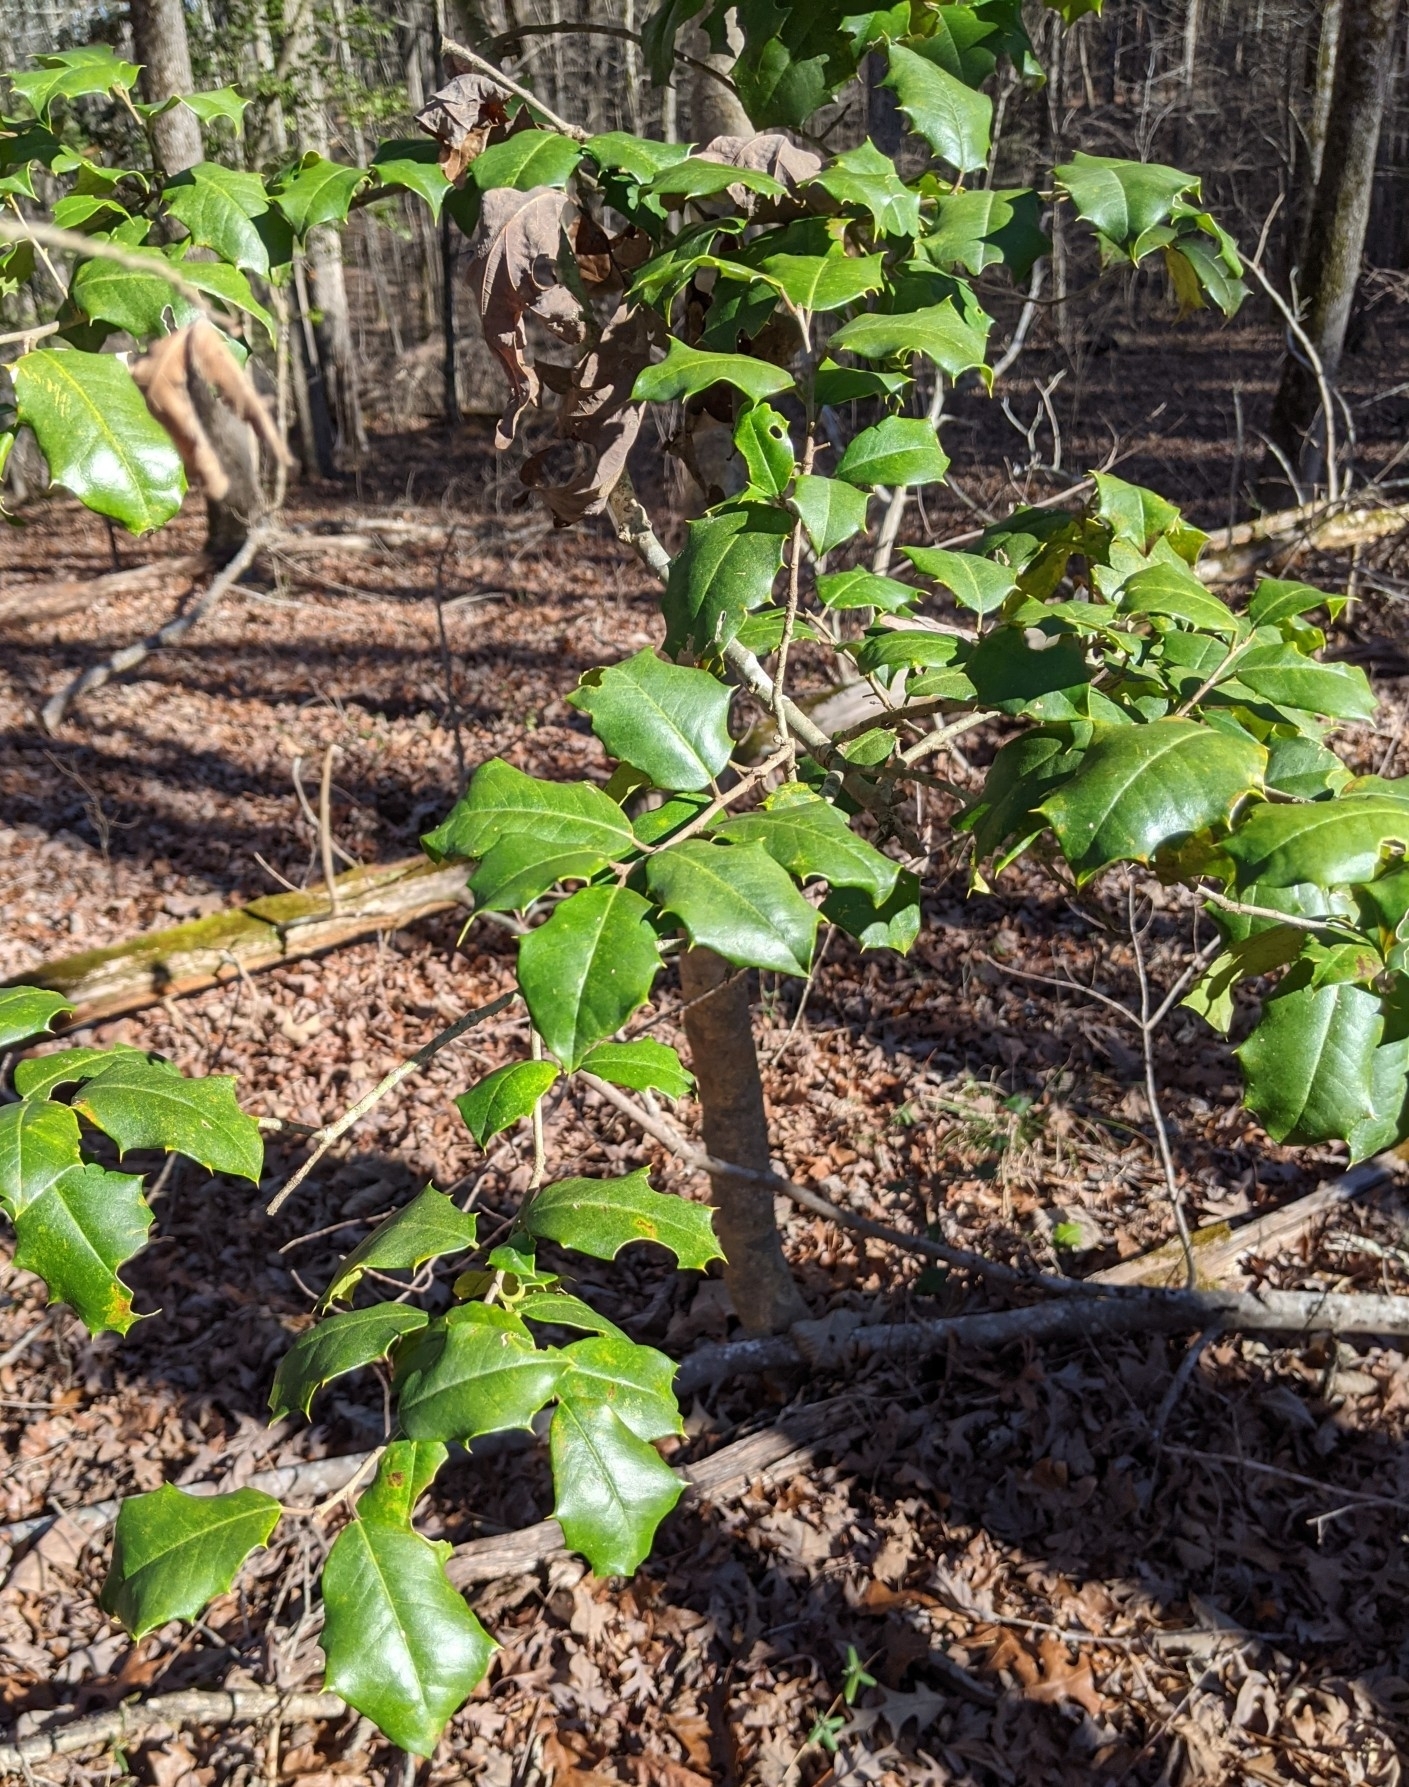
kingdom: Plantae
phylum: Tracheophyta
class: Magnoliopsida
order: Aquifoliales
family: Aquifoliaceae
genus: Ilex
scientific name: Ilex opaca
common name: American holly
